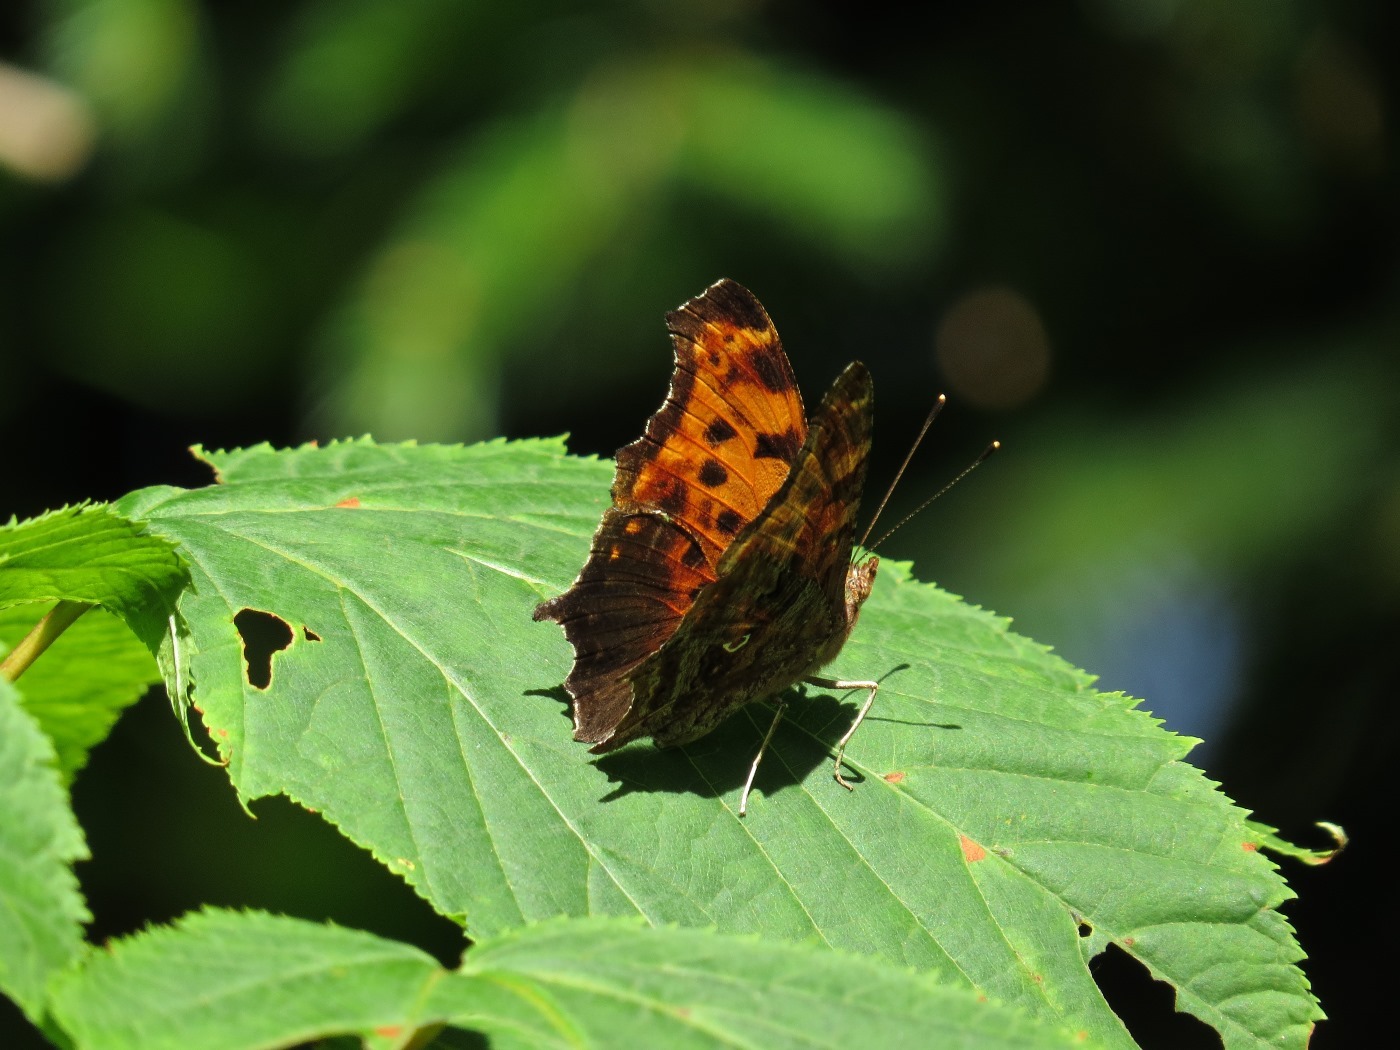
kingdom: Animalia
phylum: Arthropoda
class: Insecta
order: Lepidoptera
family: Nymphalidae
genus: Polygonia
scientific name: Polygonia comma
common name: Eastern comma
